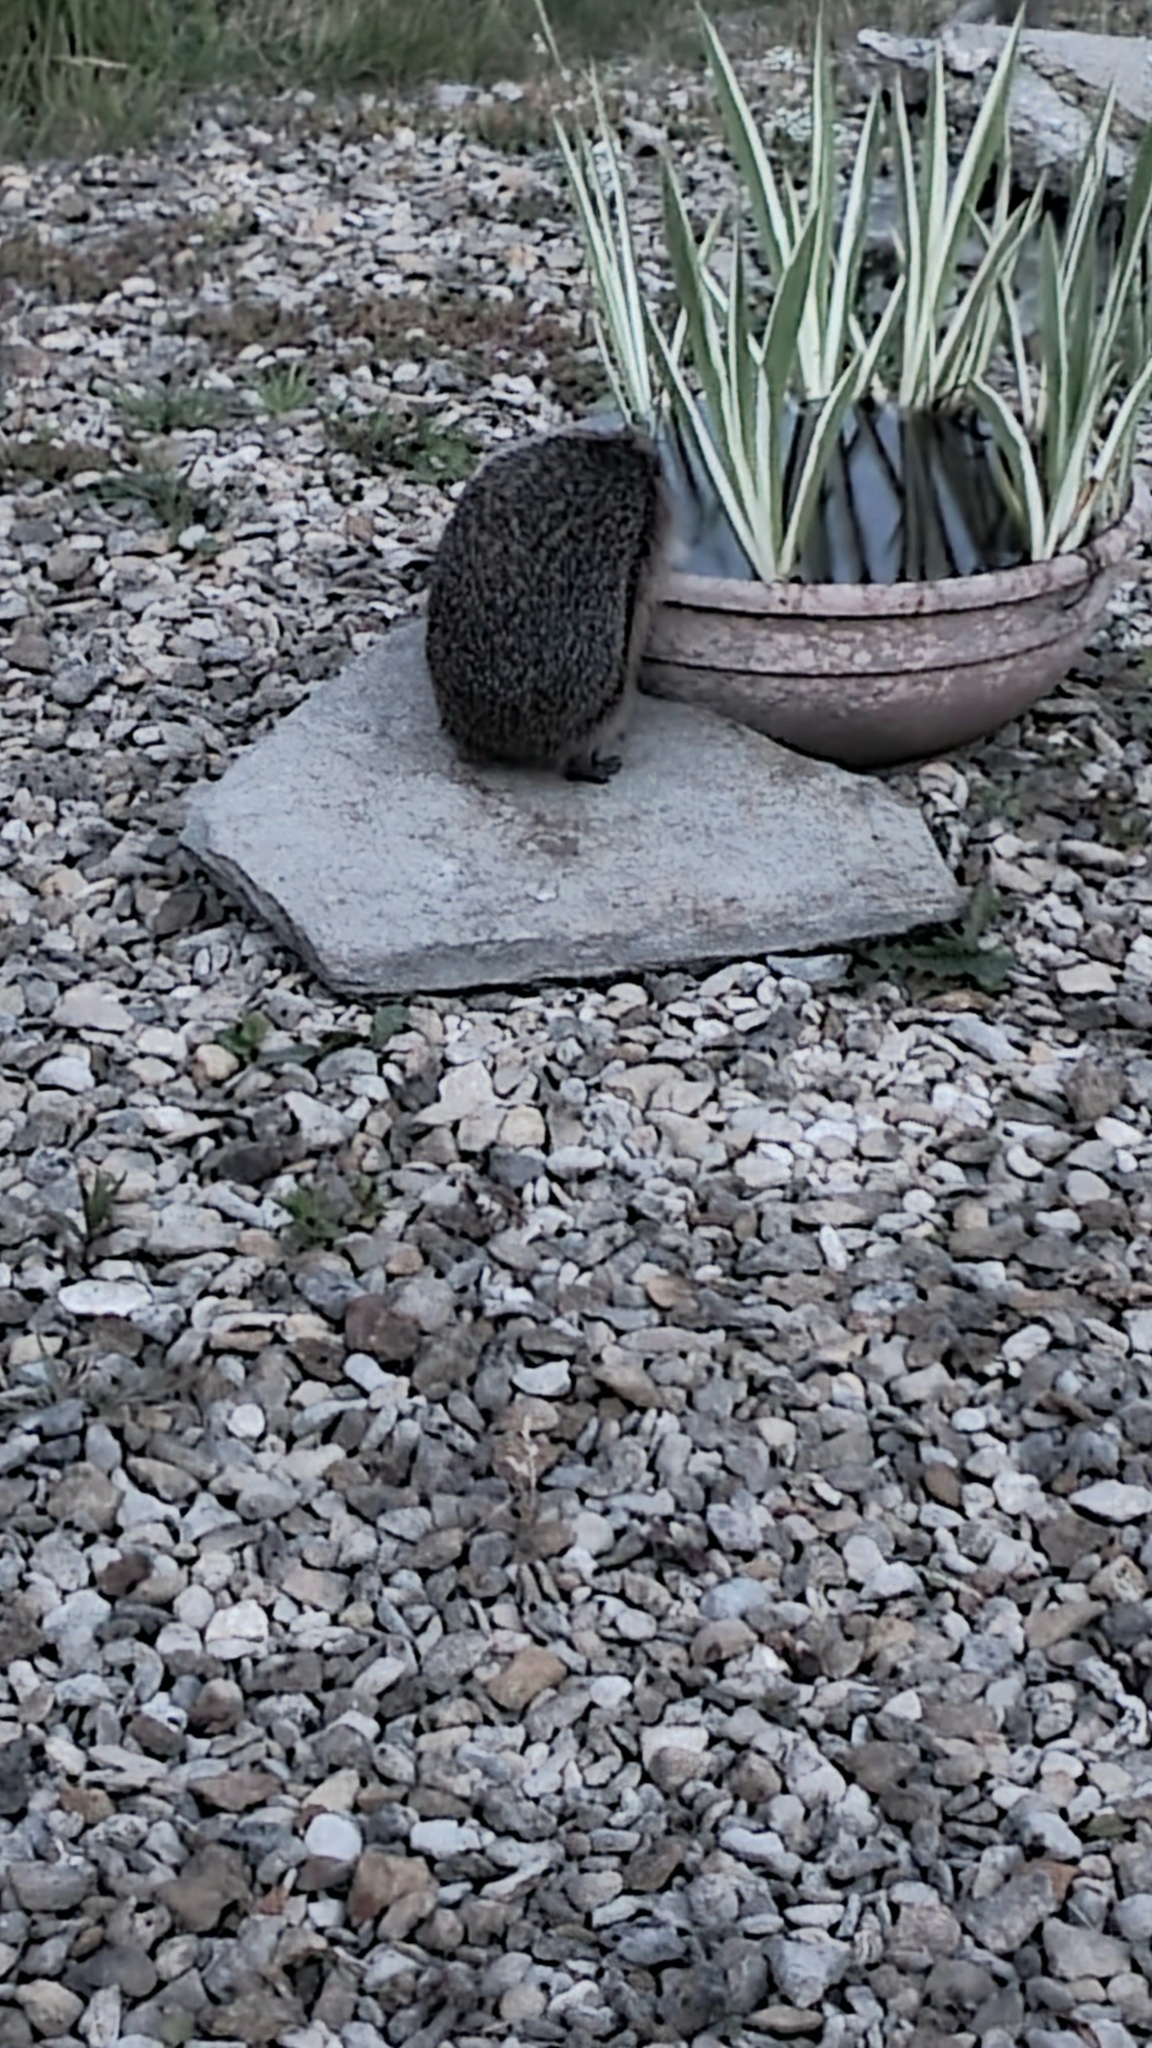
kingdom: Animalia
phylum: Chordata
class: Mammalia
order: Erinaceomorpha
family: Erinaceidae
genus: Erinaceus
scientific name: Erinaceus europaeus
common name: West european hedgehog
